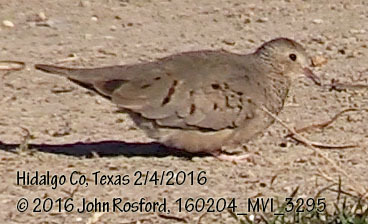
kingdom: Animalia
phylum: Chordata
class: Aves
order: Columbiformes
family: Columbidae
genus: Columbina
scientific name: Columbina passerina
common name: Common ground-dove
